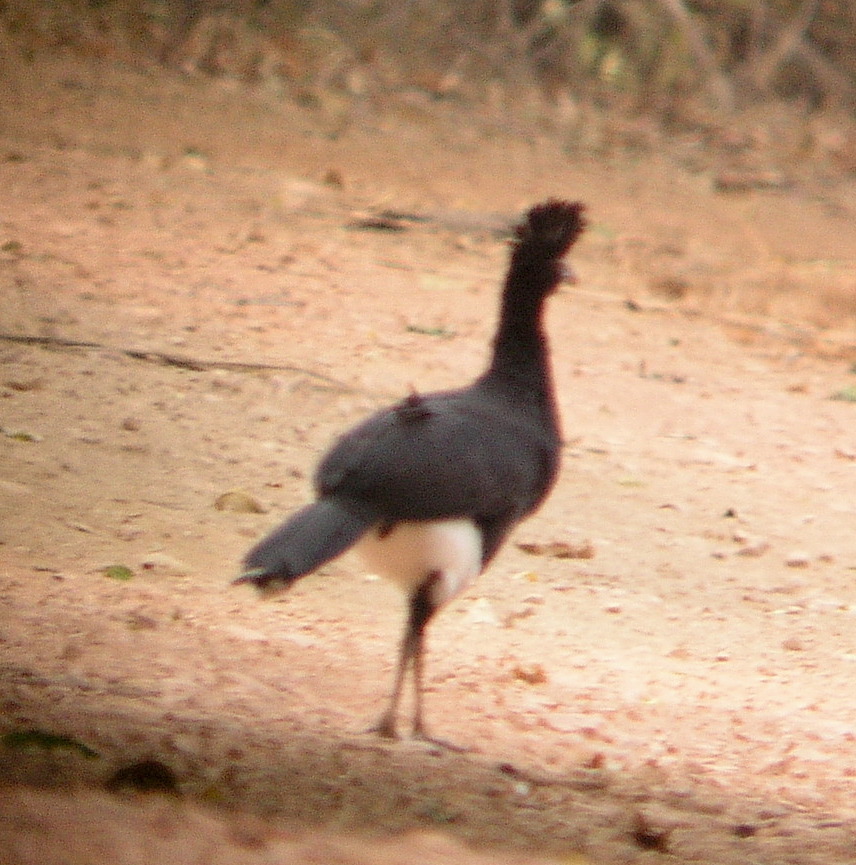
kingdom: Animalia
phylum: Chordata
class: Aves
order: Galliformes
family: Cracidae
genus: Crax
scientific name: Crax daubentoni
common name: Yellow-knobbed curassow
